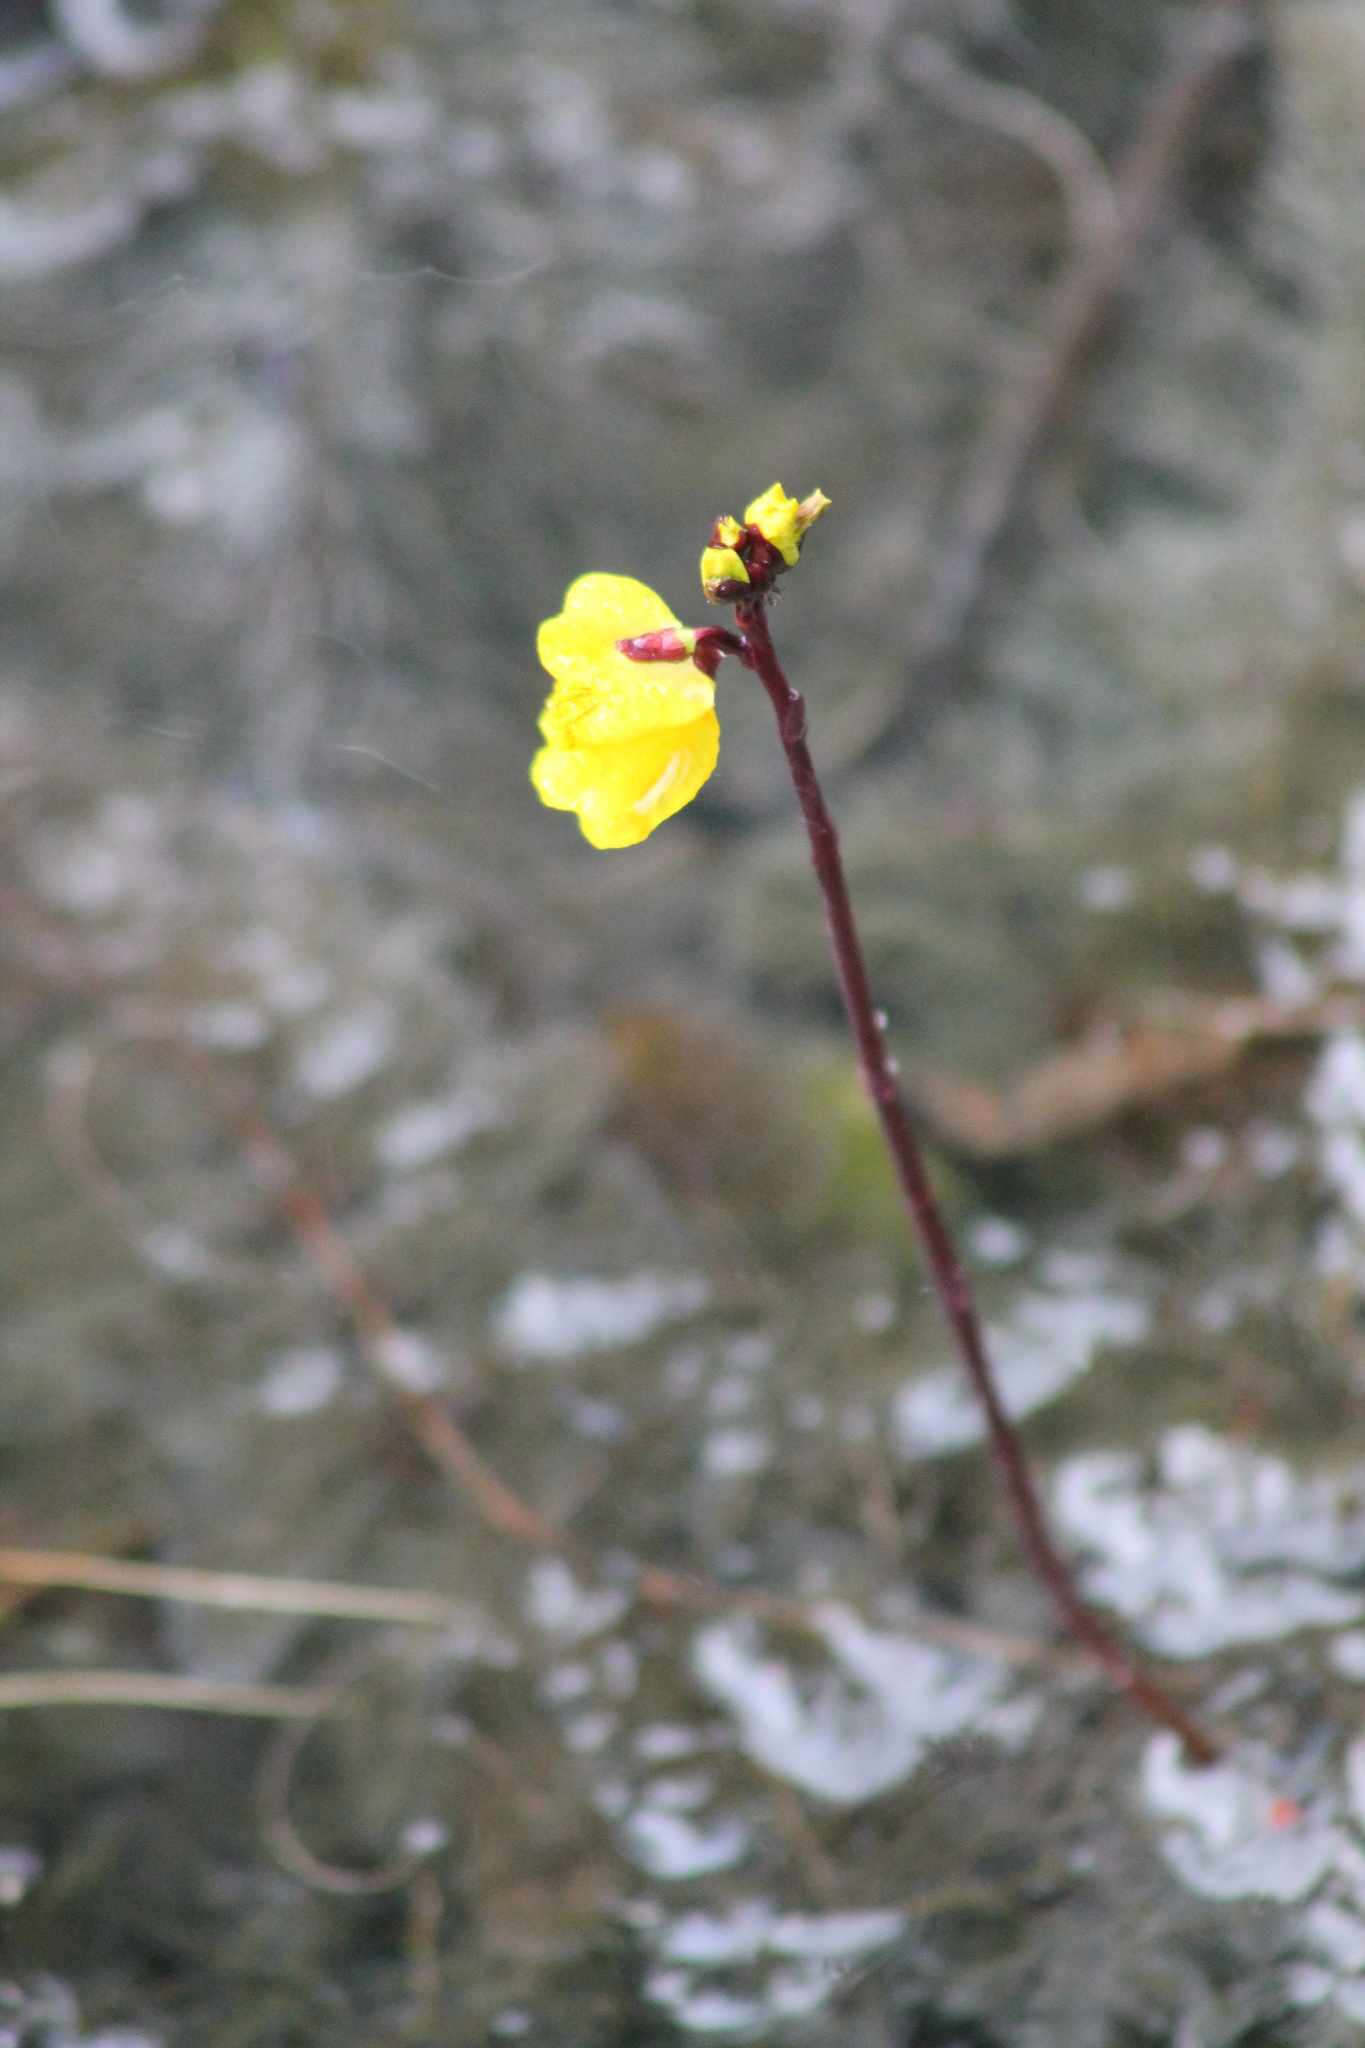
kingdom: Plantae
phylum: Tracheophyta
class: Magnoliopsida
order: Lamiales
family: Lentibulariaceae
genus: Utricularia
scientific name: Utricularia vulgaris
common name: Greater bladderwort
